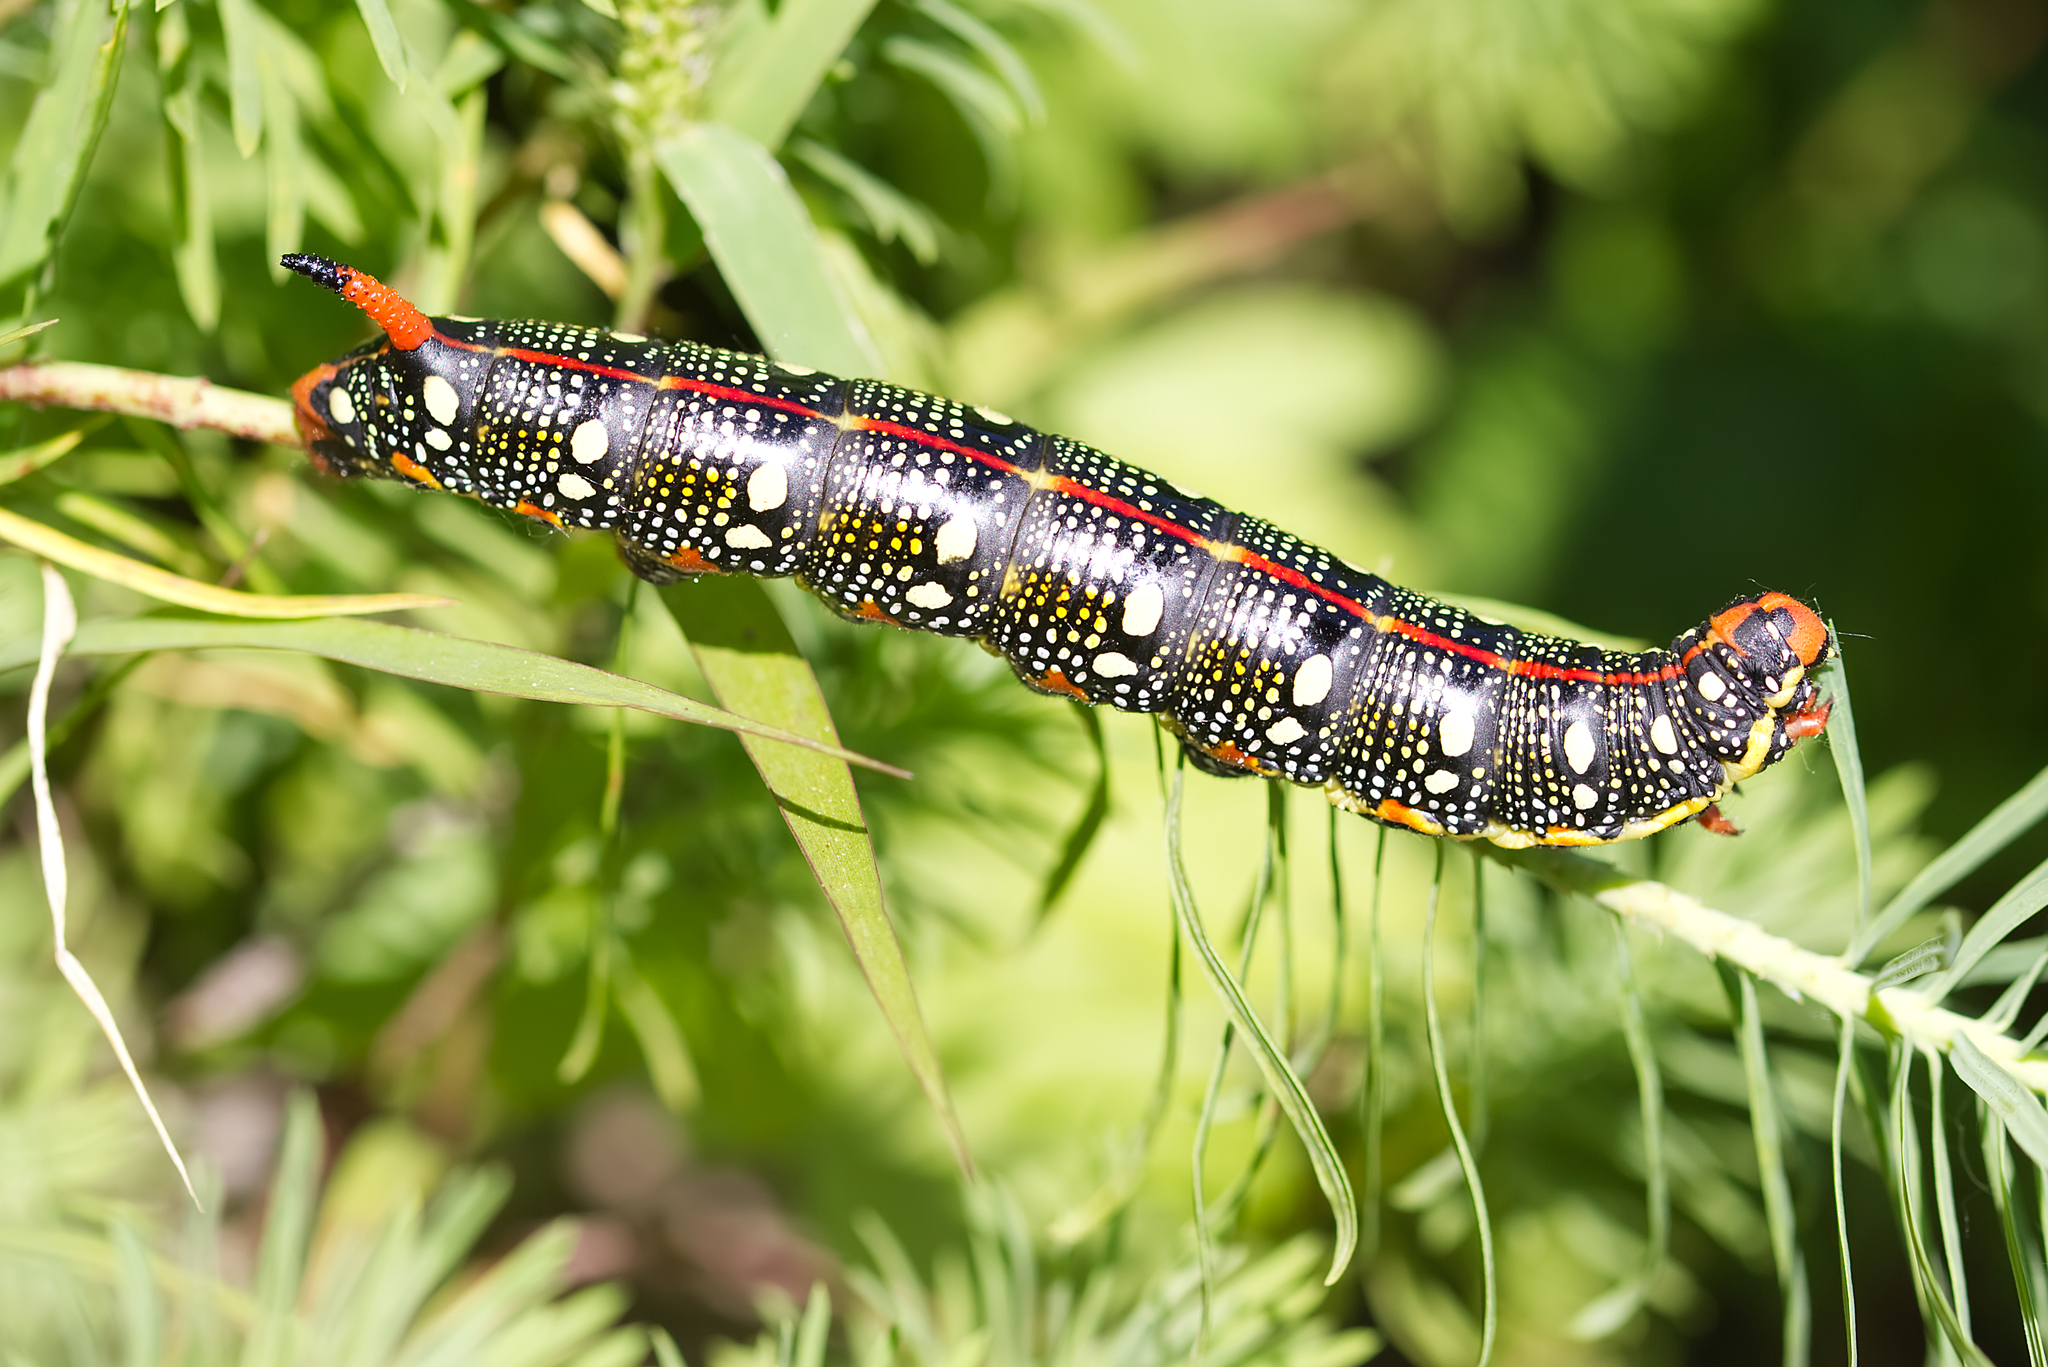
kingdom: Animalia
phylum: Arthropoda
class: Insecta
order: Lepidoptera
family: Sphingidae
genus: Hyles
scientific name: Hyles euphorbiae
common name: Spurge hawk-moth
